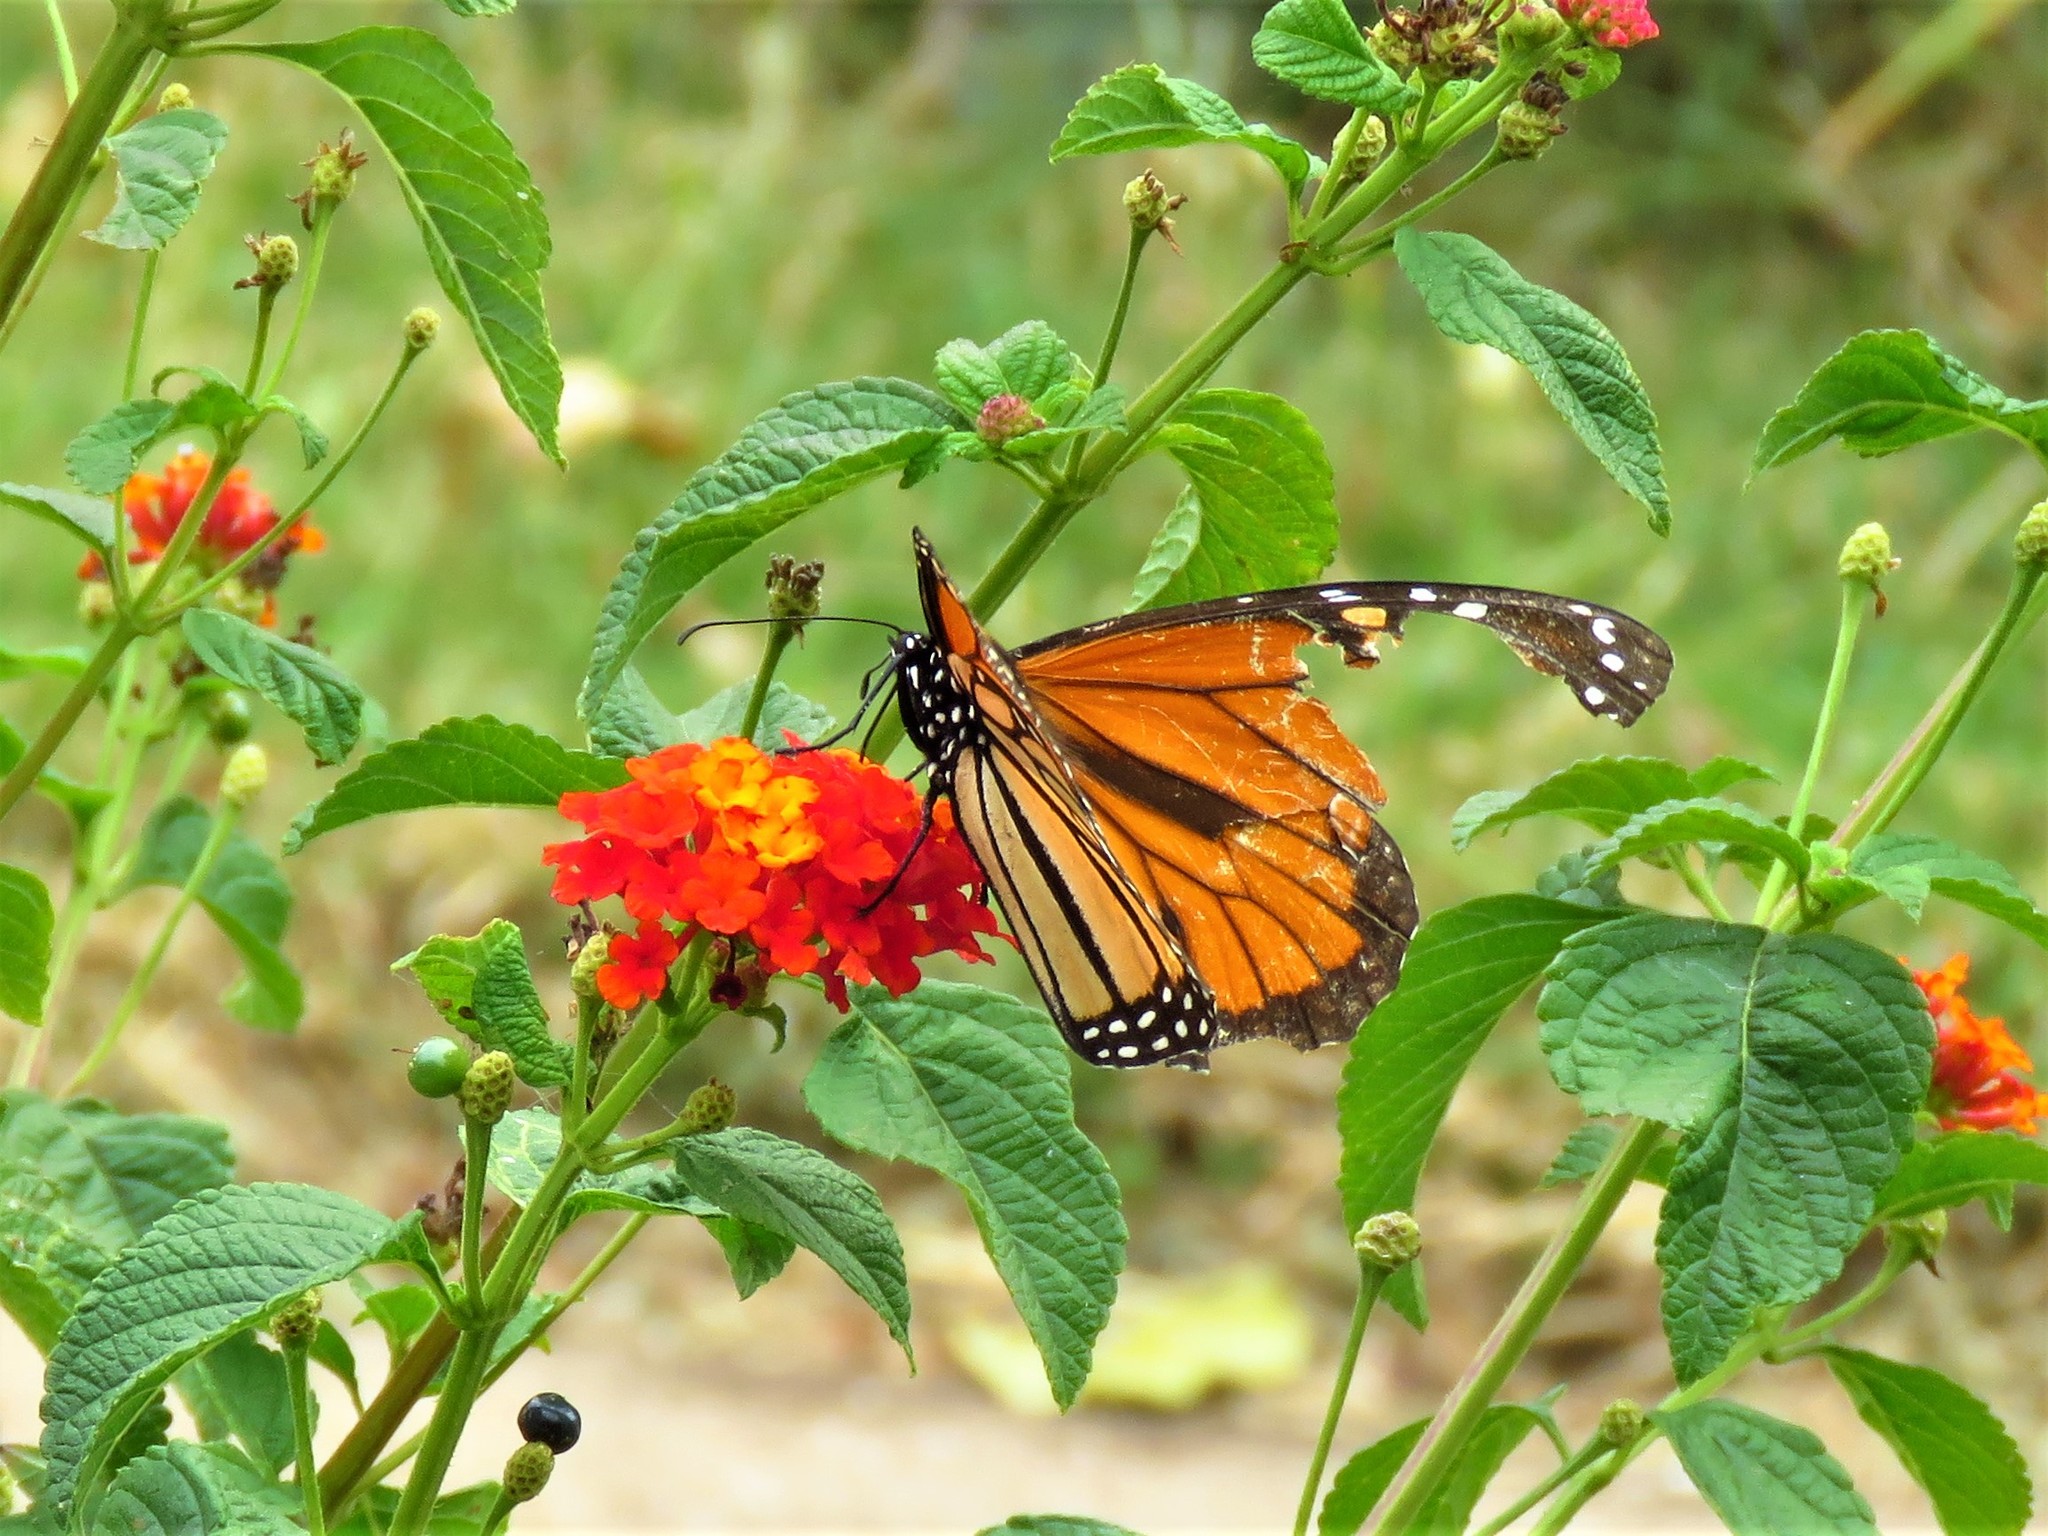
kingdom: Animalia
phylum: Arthropoda
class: Insecta
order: Lepidoptera
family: Nymphalidae
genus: Danaus
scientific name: Danaus plexippus
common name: Monarch
